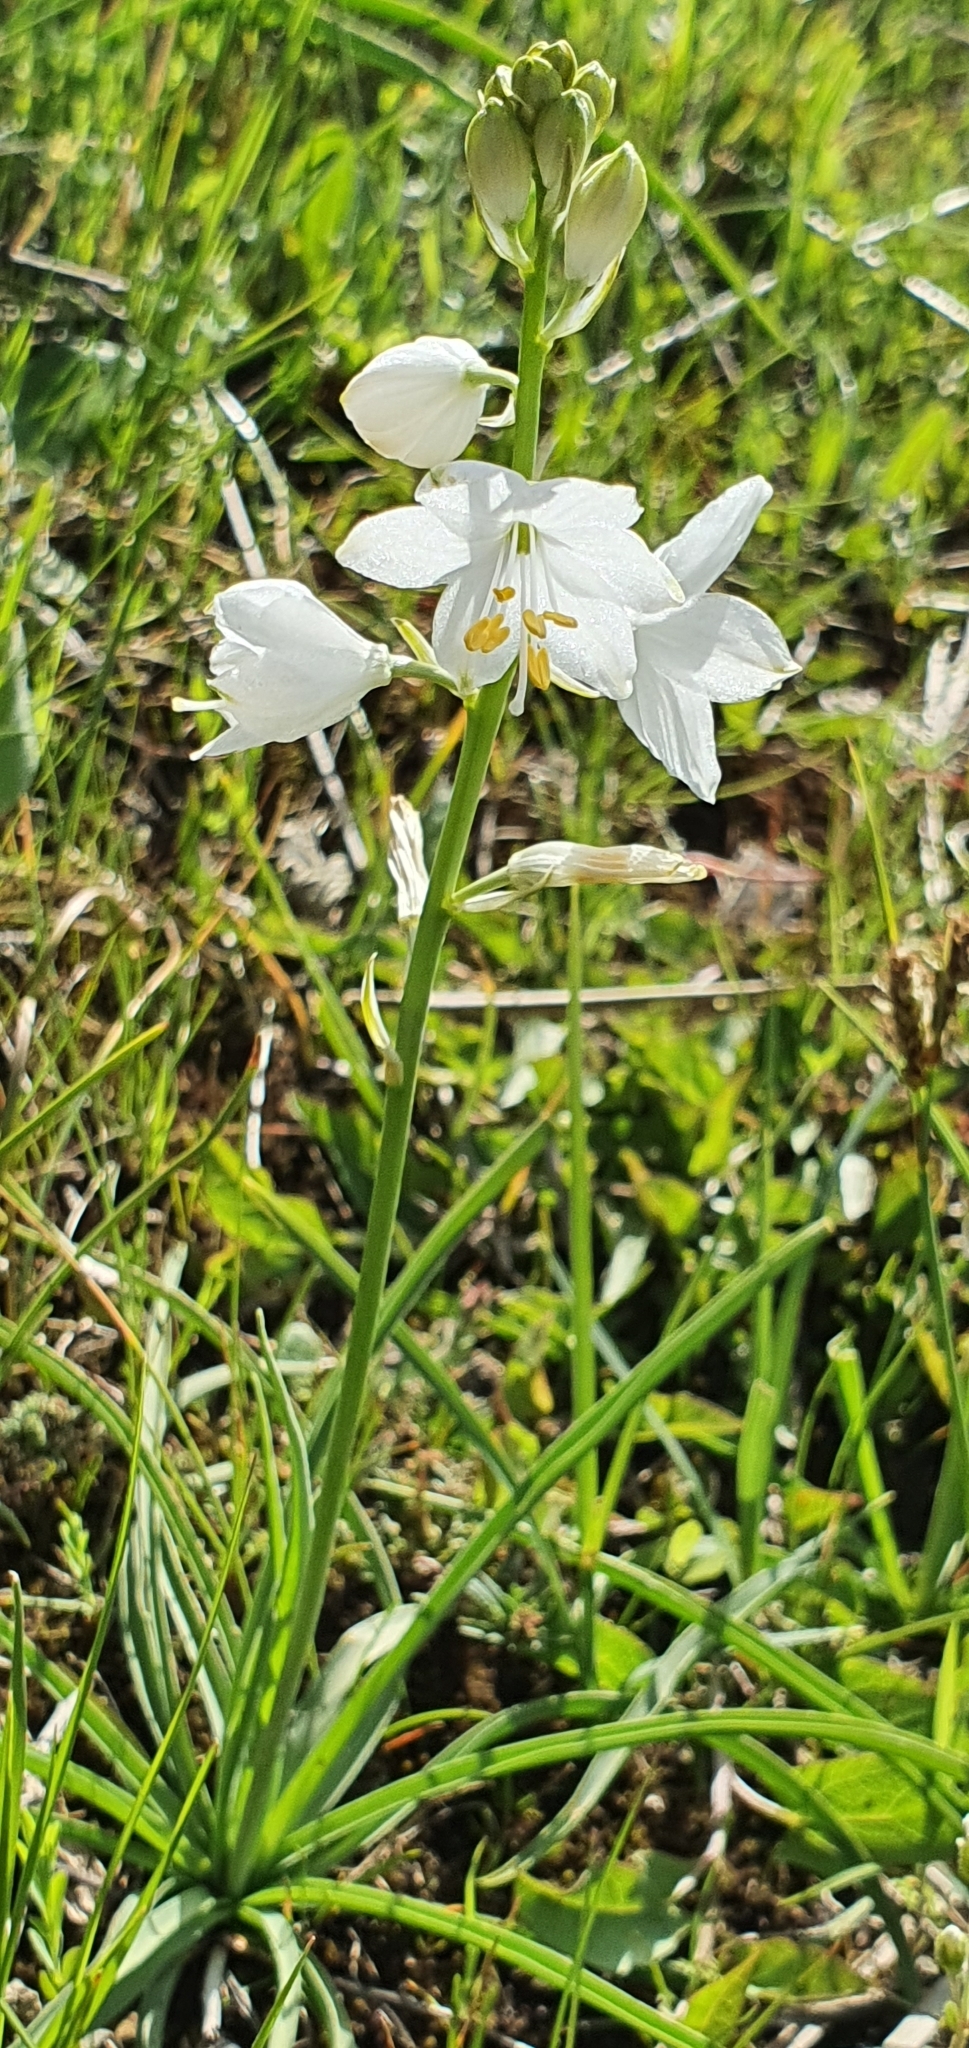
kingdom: Plantae
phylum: Tracheophyta
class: Liliopsida
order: Asparagales
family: Asparagaceae
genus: Anthericum
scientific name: Anthericum baeticum
